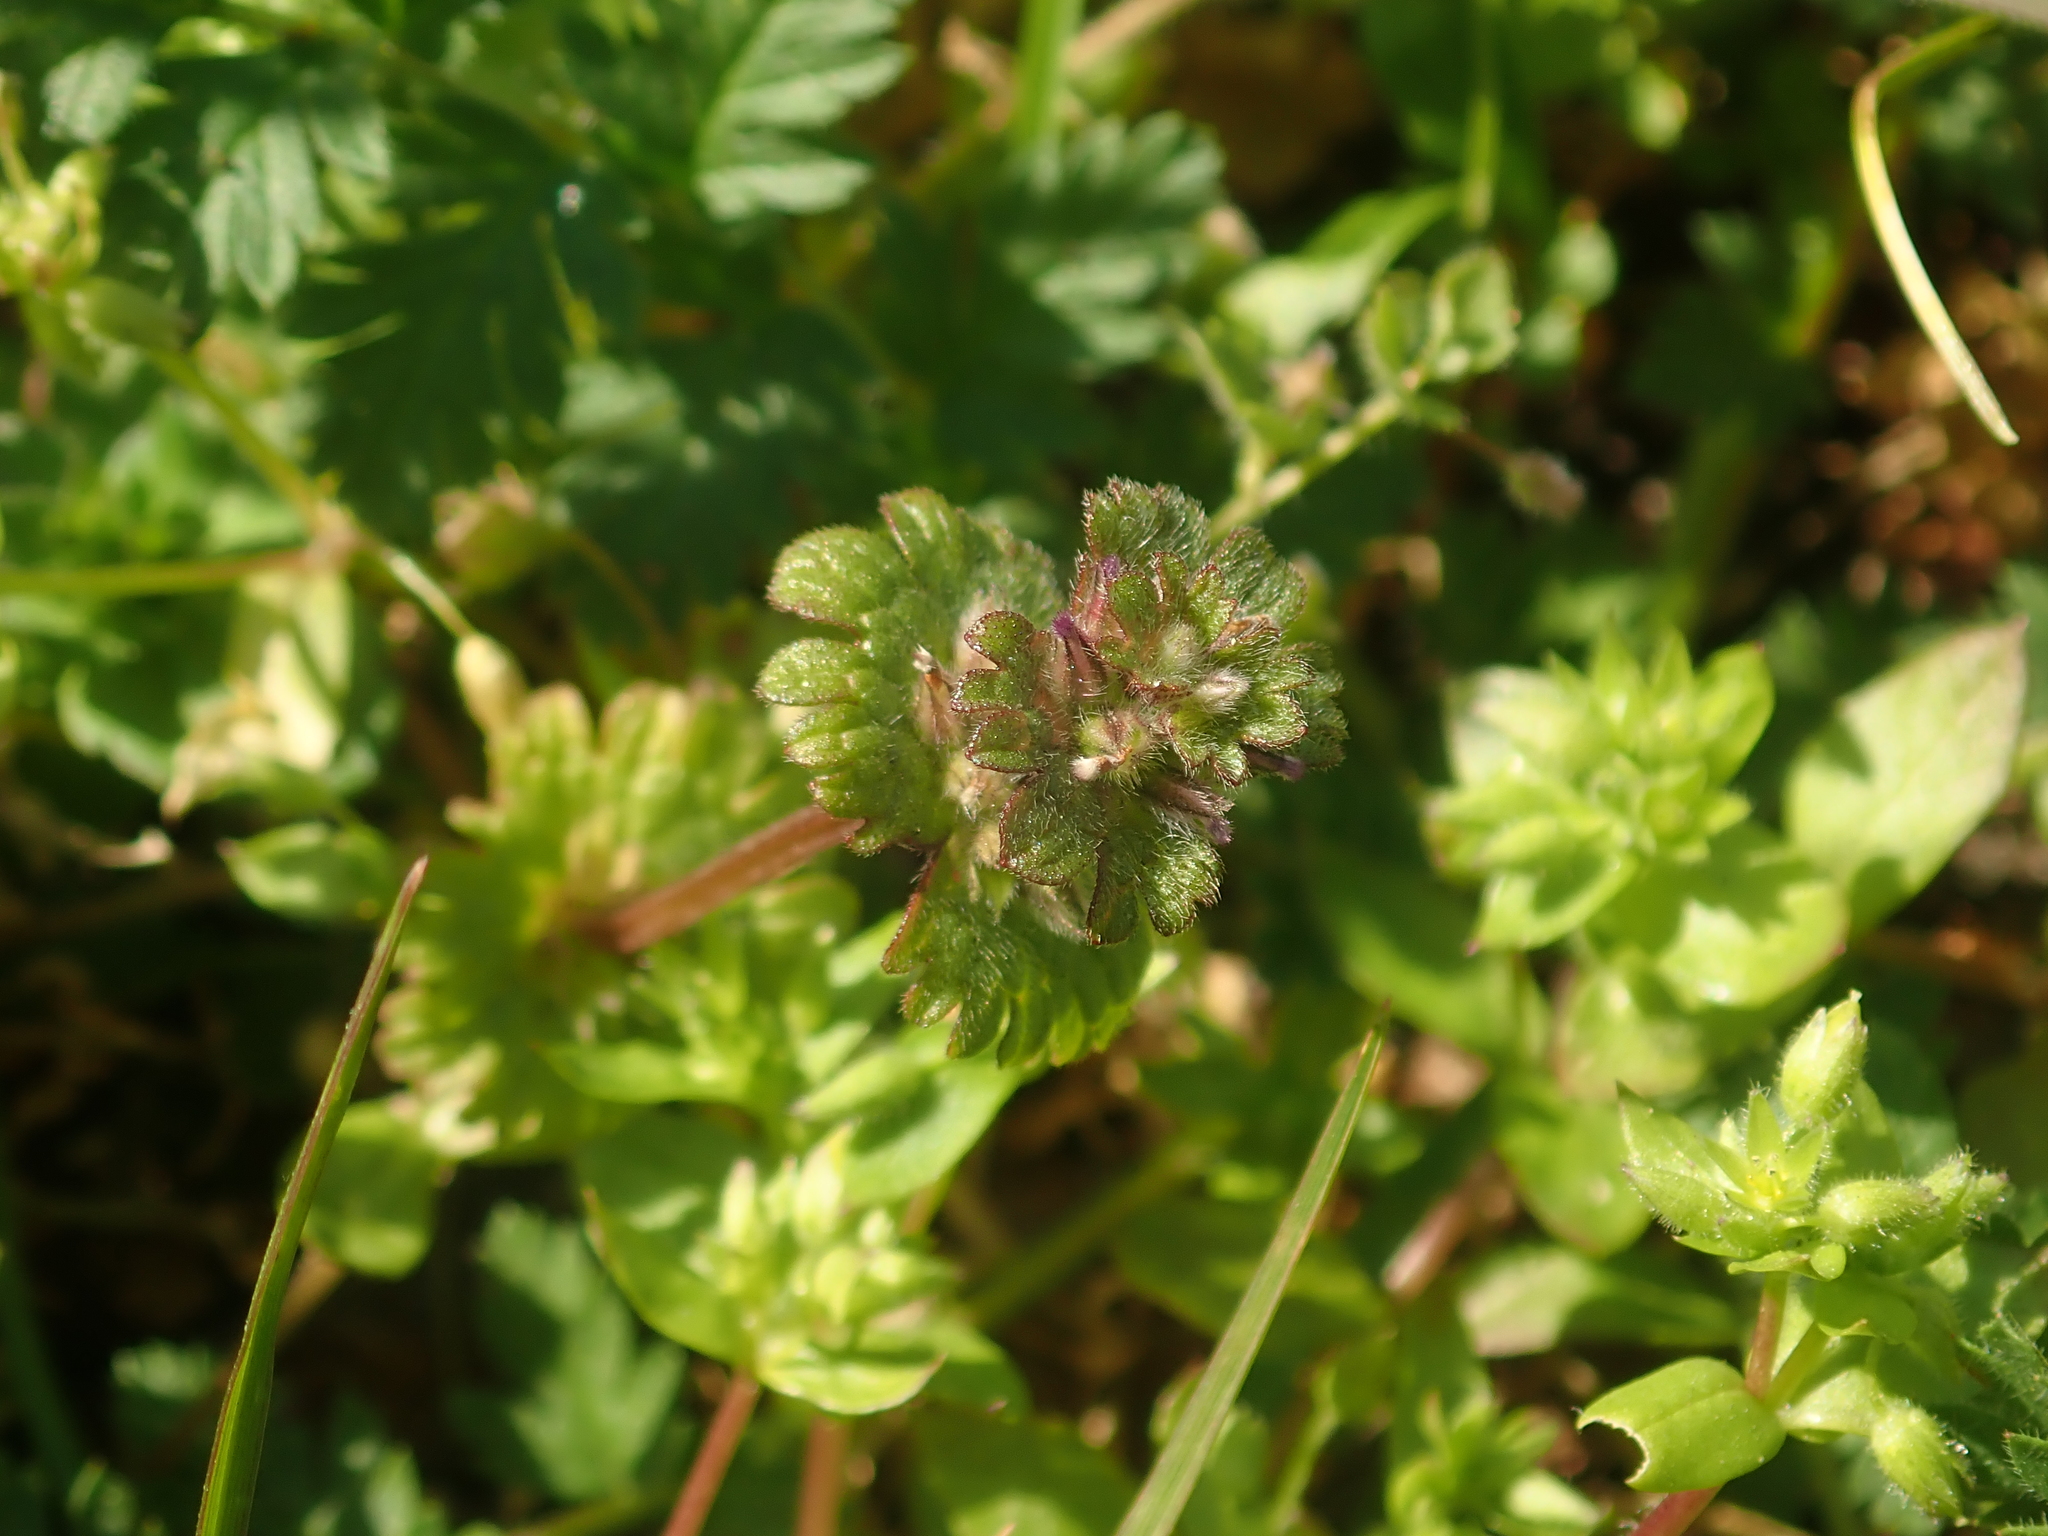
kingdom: Plantae
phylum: Tracheophyta
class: Magnoliopsida
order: Lamiales
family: Lamiaceae
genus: Lamium
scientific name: Lamium amplexicaule
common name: Henbit dead-nettle
